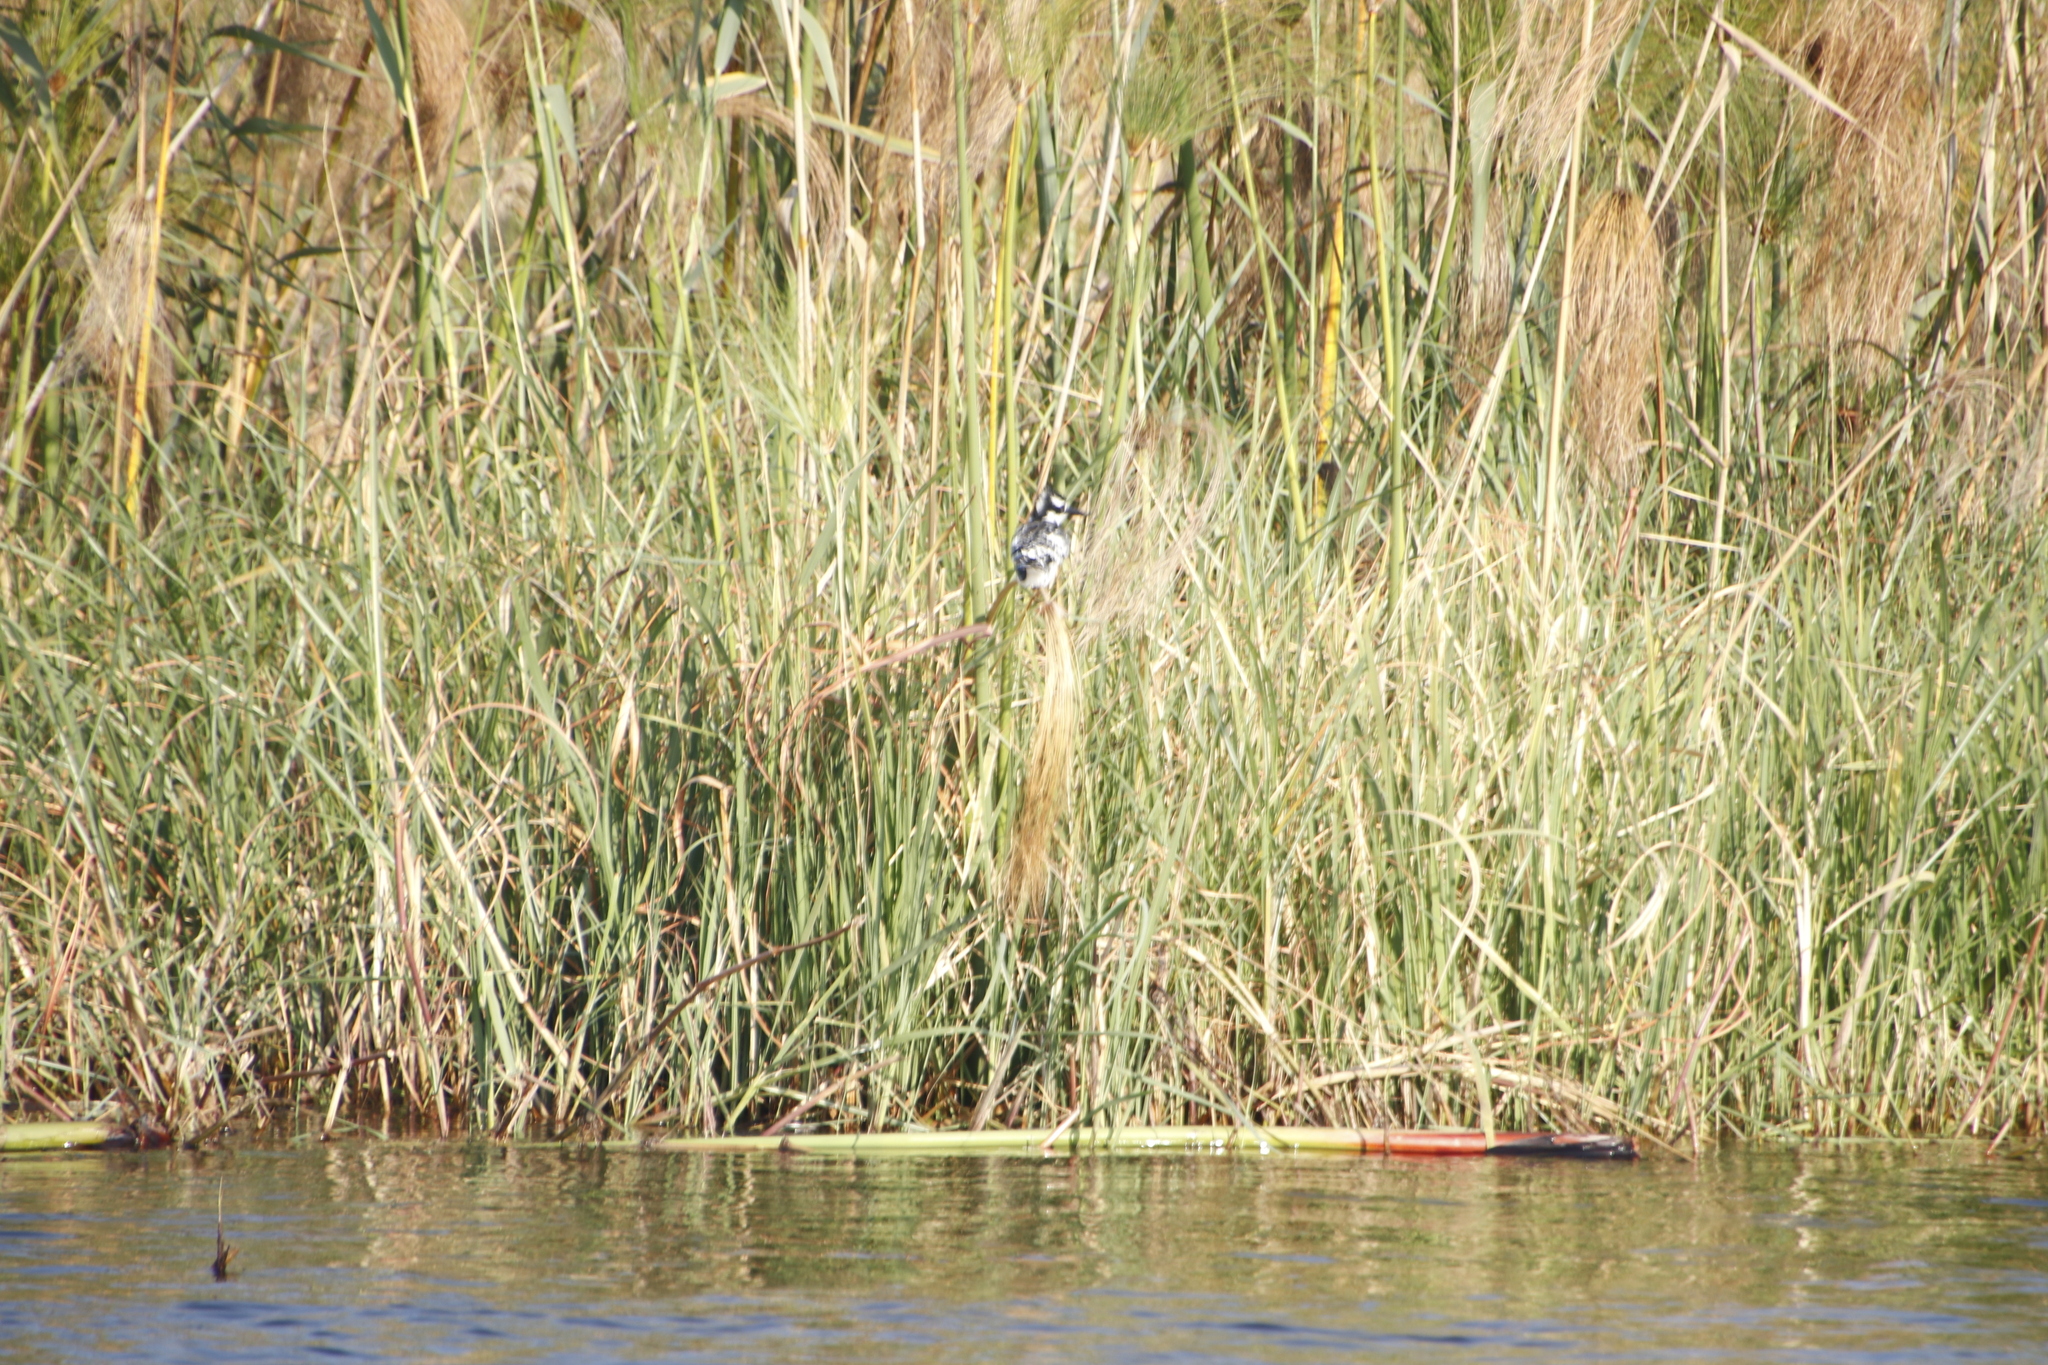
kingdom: Animalia
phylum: Chordata
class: Aves
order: Coraciiformes
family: Alcedinidae
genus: Ceryle
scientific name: Ceryle rudis
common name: Pied kingfisher
